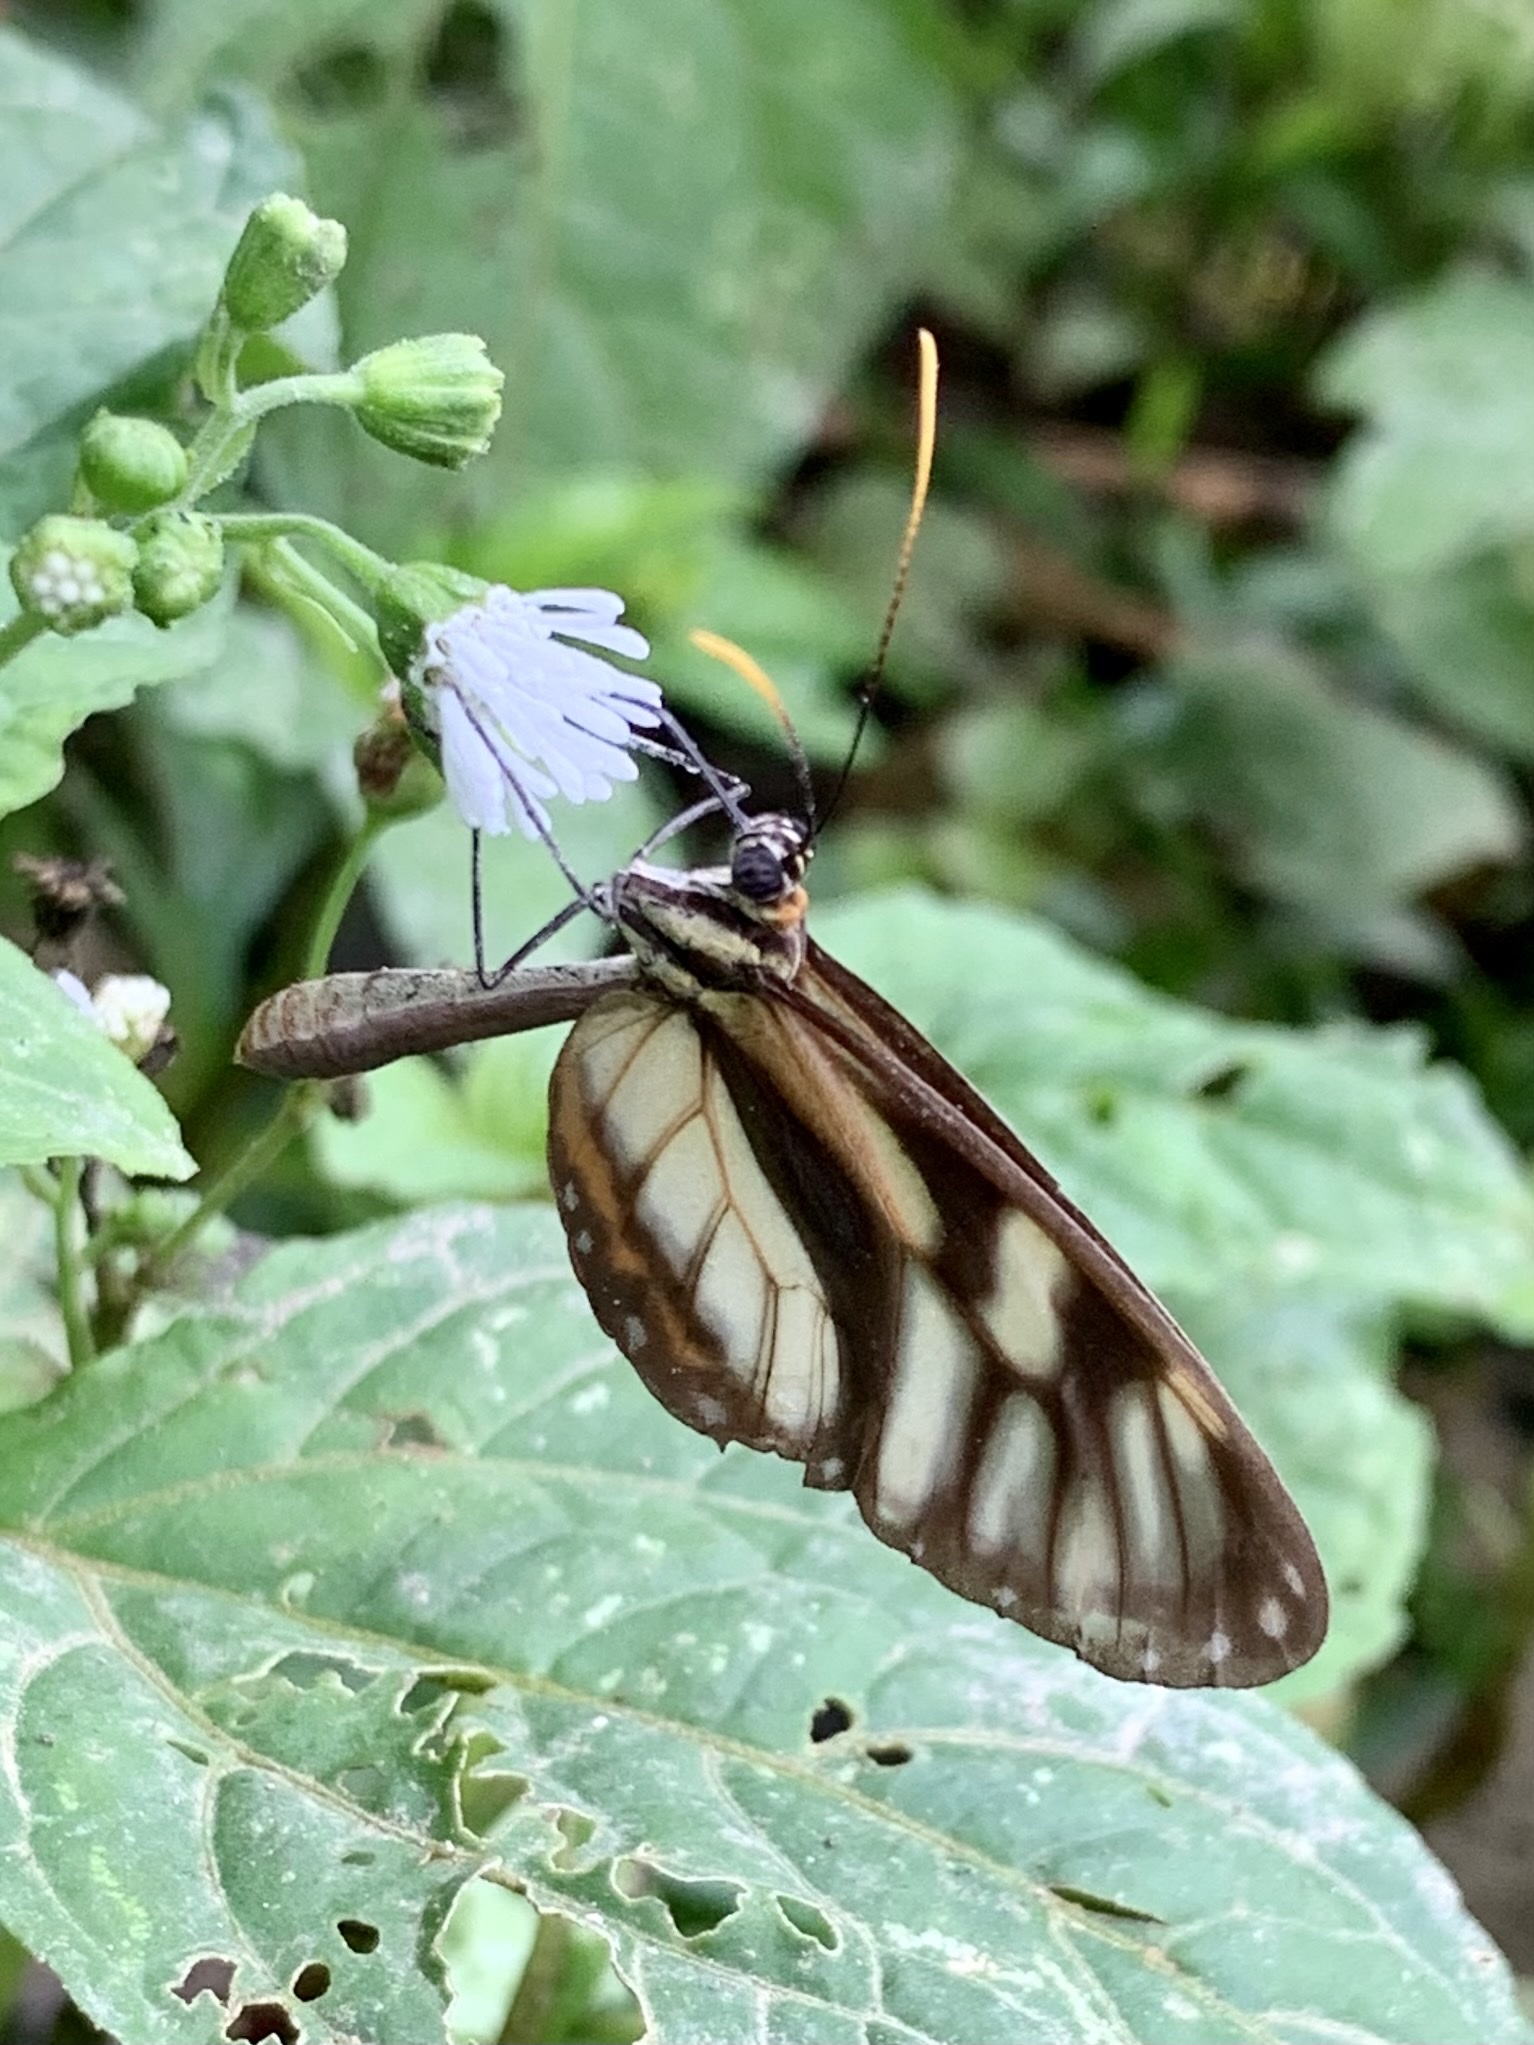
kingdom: Animalia
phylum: Arthropoda
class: Insecta
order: Lepidoptera
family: Nymphalidae
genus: Ithomia
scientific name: Ithomia
